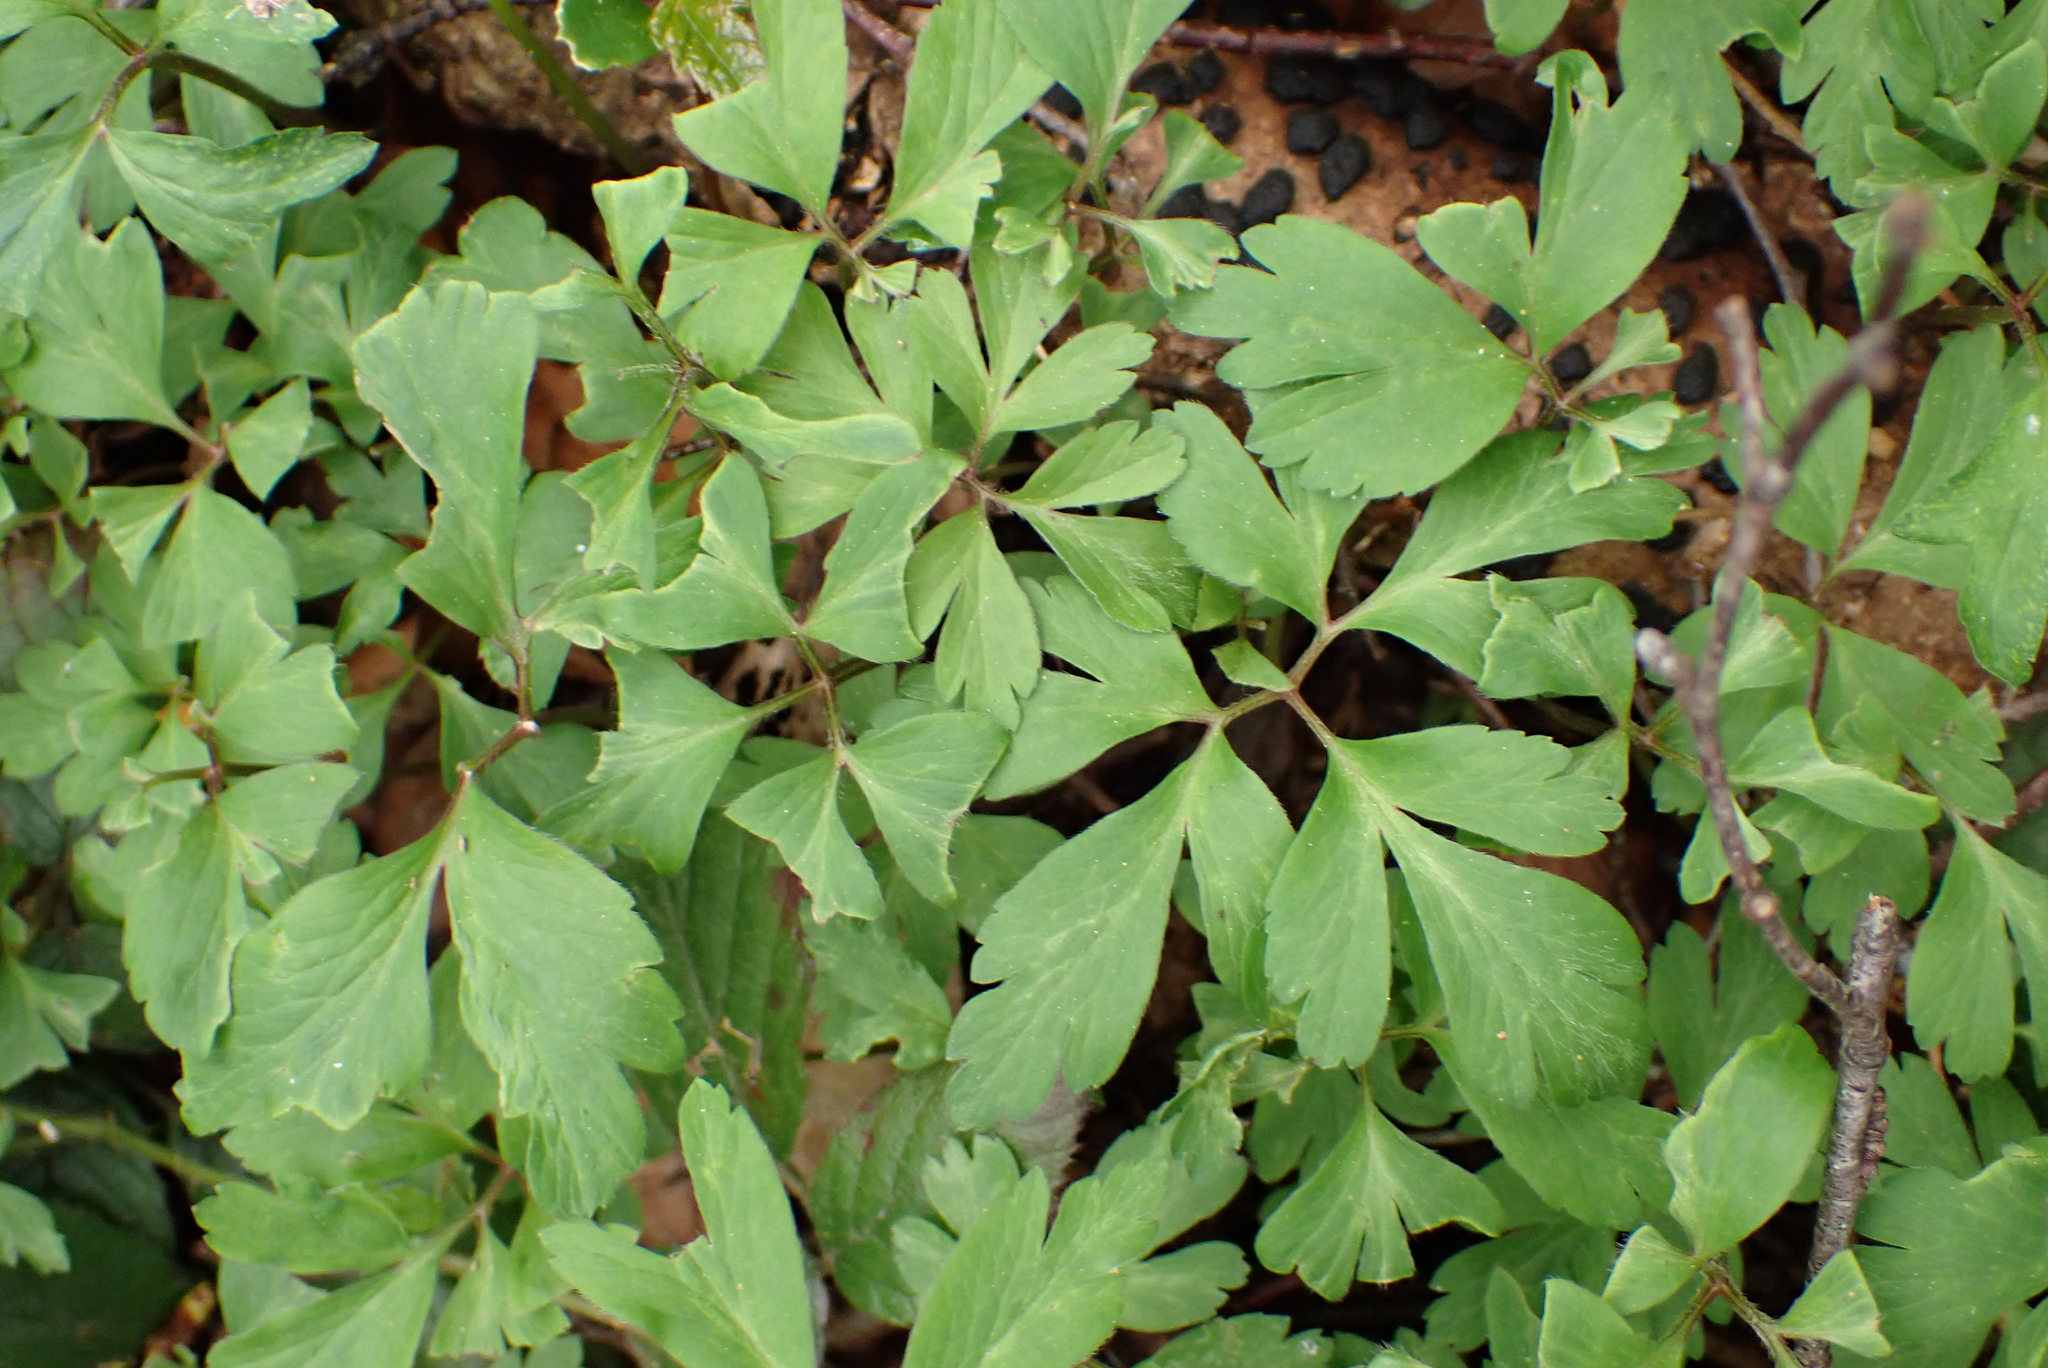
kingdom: Plantae
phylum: Tracheophyta
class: Magnoliopsida
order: Ranunculales
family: Ranunculaceae
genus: Anemone
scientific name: Anemone nemorosa
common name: Wood anemone
